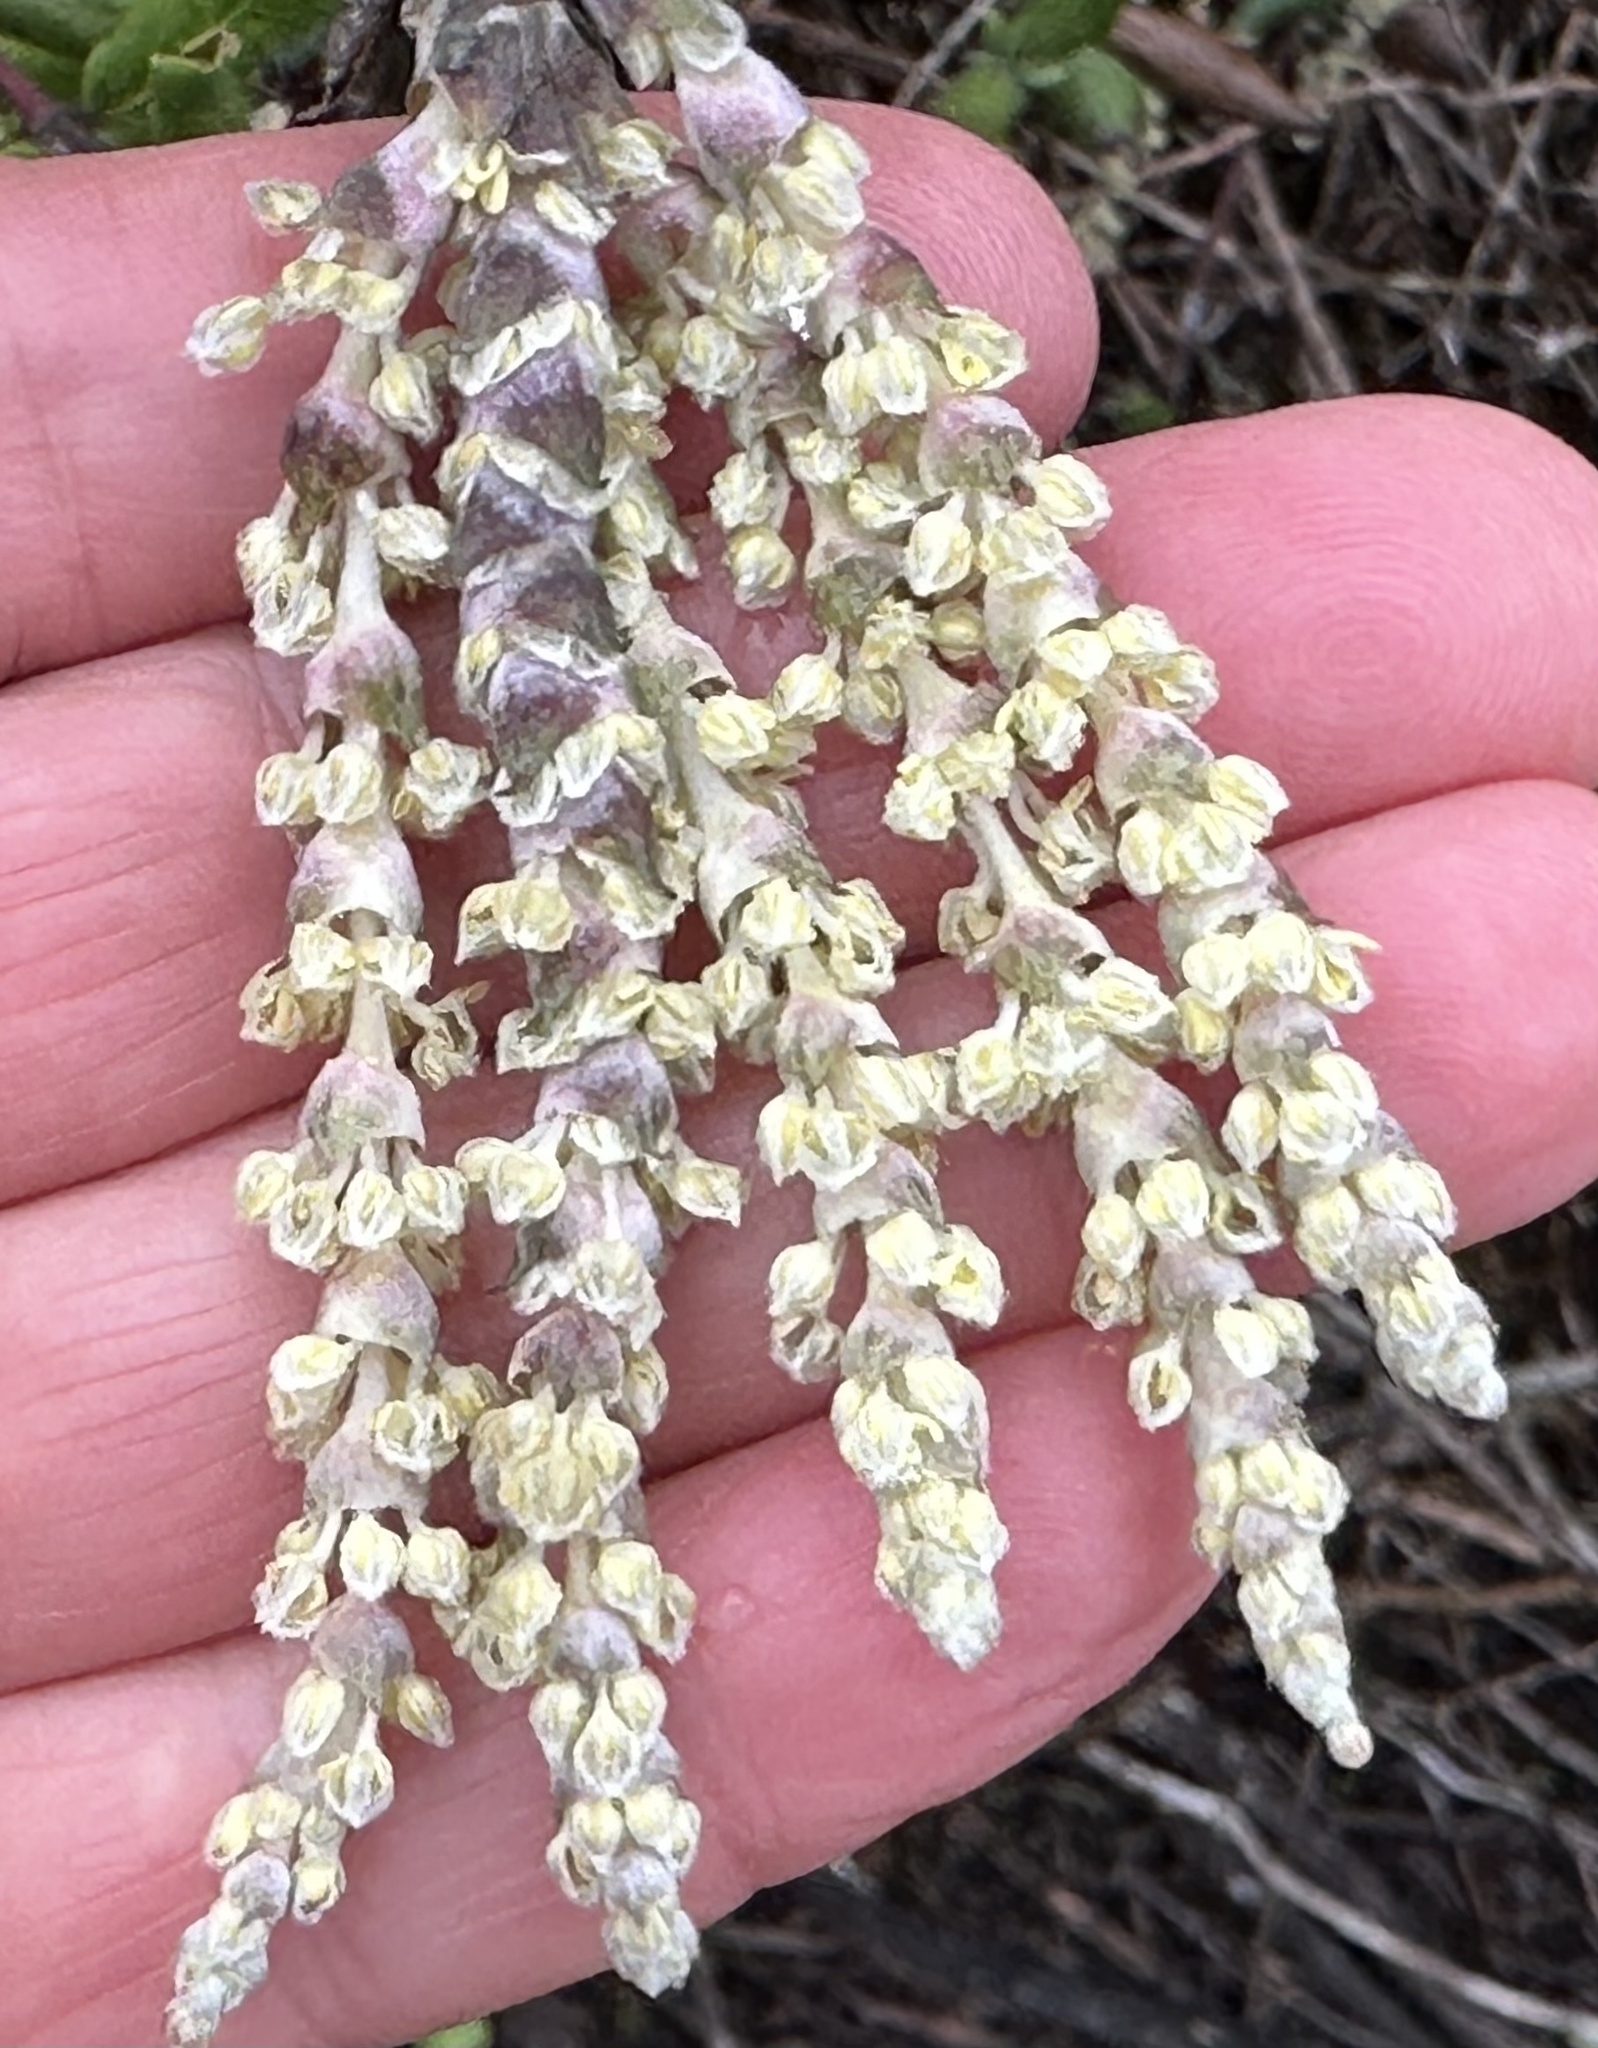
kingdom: Plantae
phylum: Tracheophyta
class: Magnoliopsida
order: Garryales
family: Garryaceae
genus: Garrya
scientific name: Garrya elliptica
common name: Silk-tassel
